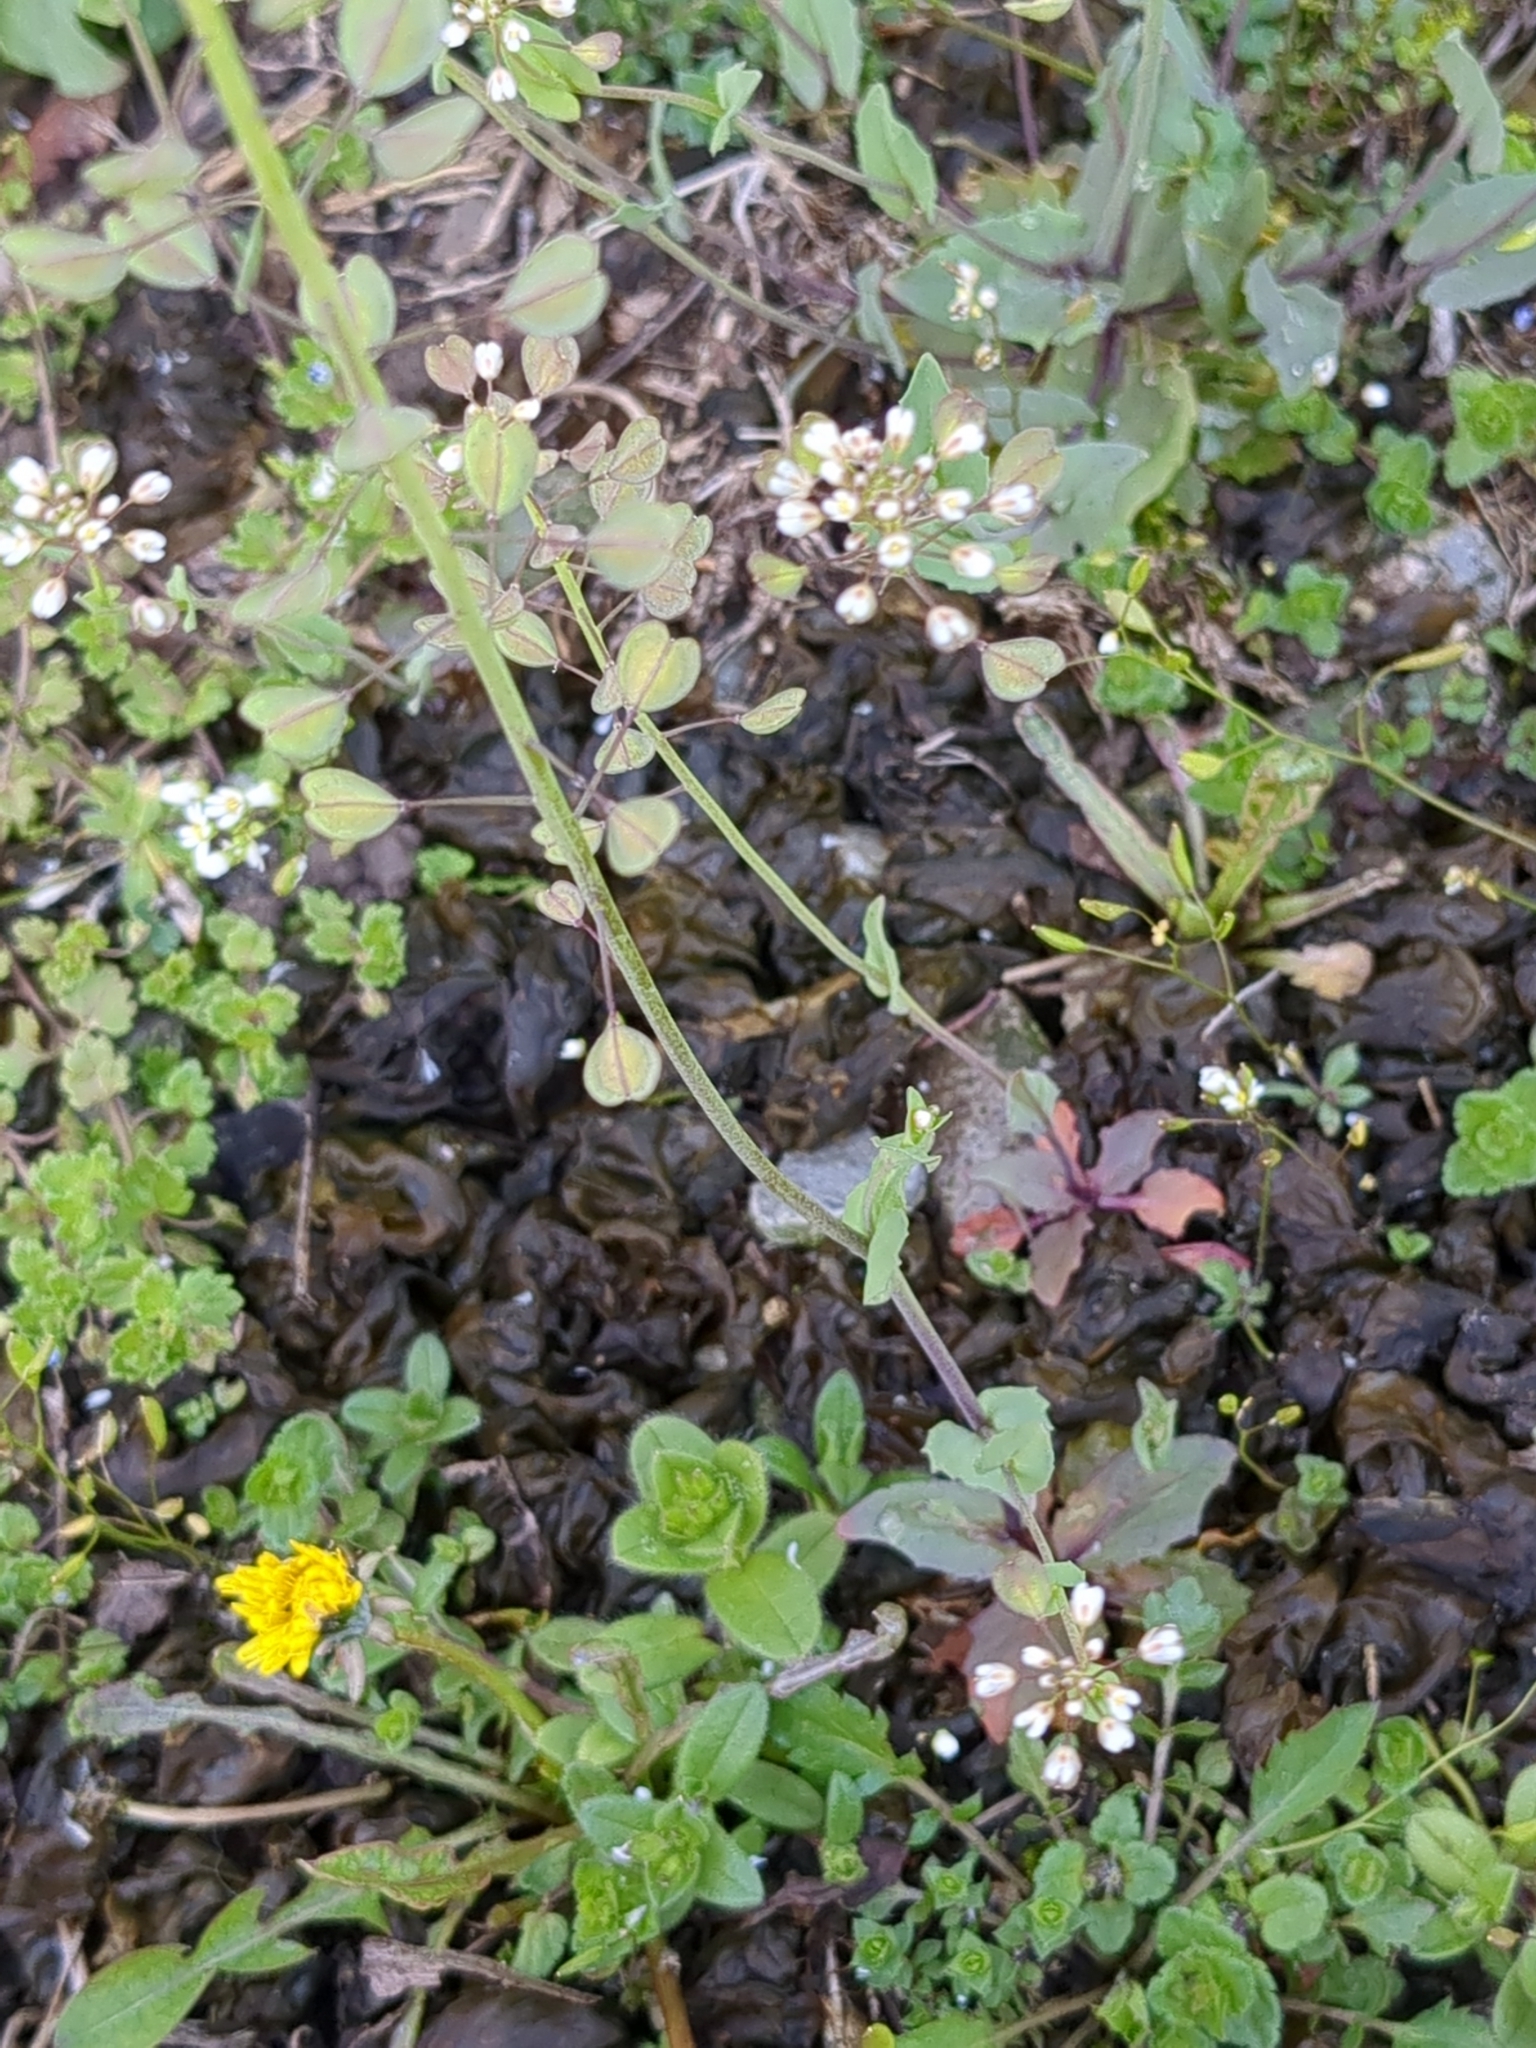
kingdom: Plantae
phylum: Tracheophyta
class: Magnoliopsida
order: Brassicales
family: Brassicaceae
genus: Noccaea
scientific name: Noccaea perfoliata
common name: Perfoliate pennycress
